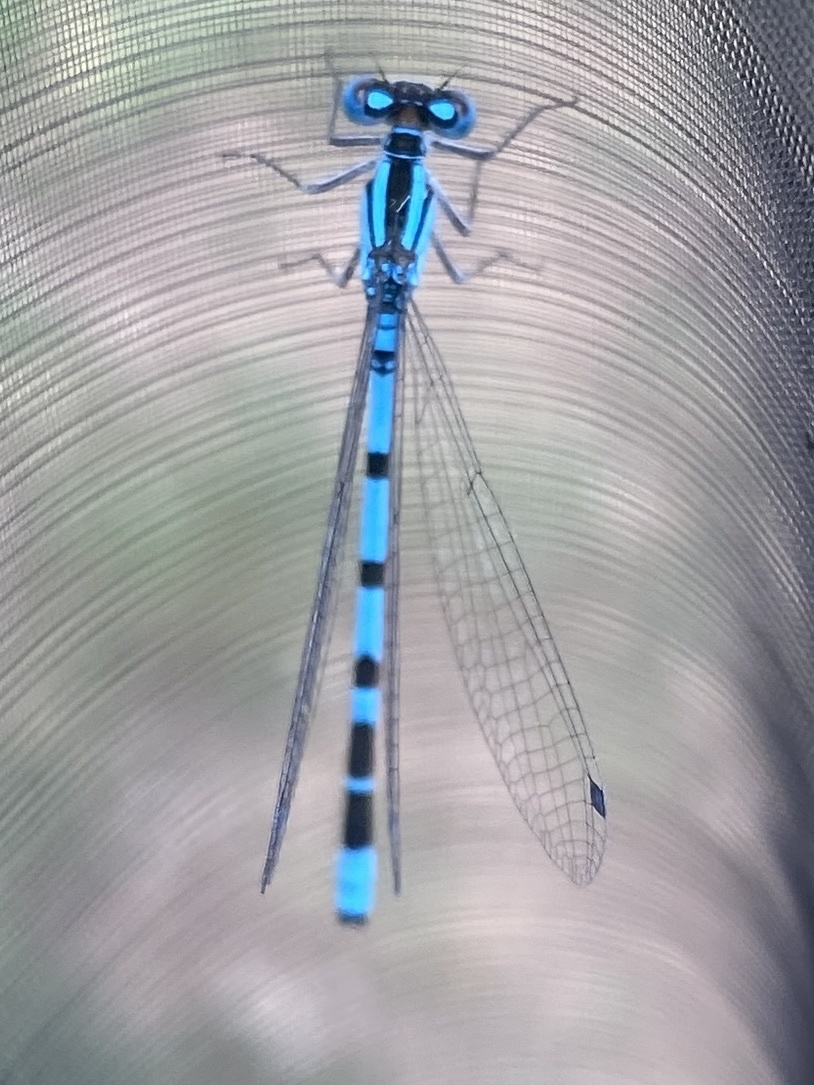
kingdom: Animalia
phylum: Arthropoda
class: Insecta
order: Odonata
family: Coenagrionidae
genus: Enallagma
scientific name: Enallagma cyathigerum
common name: Common blue damselfly
